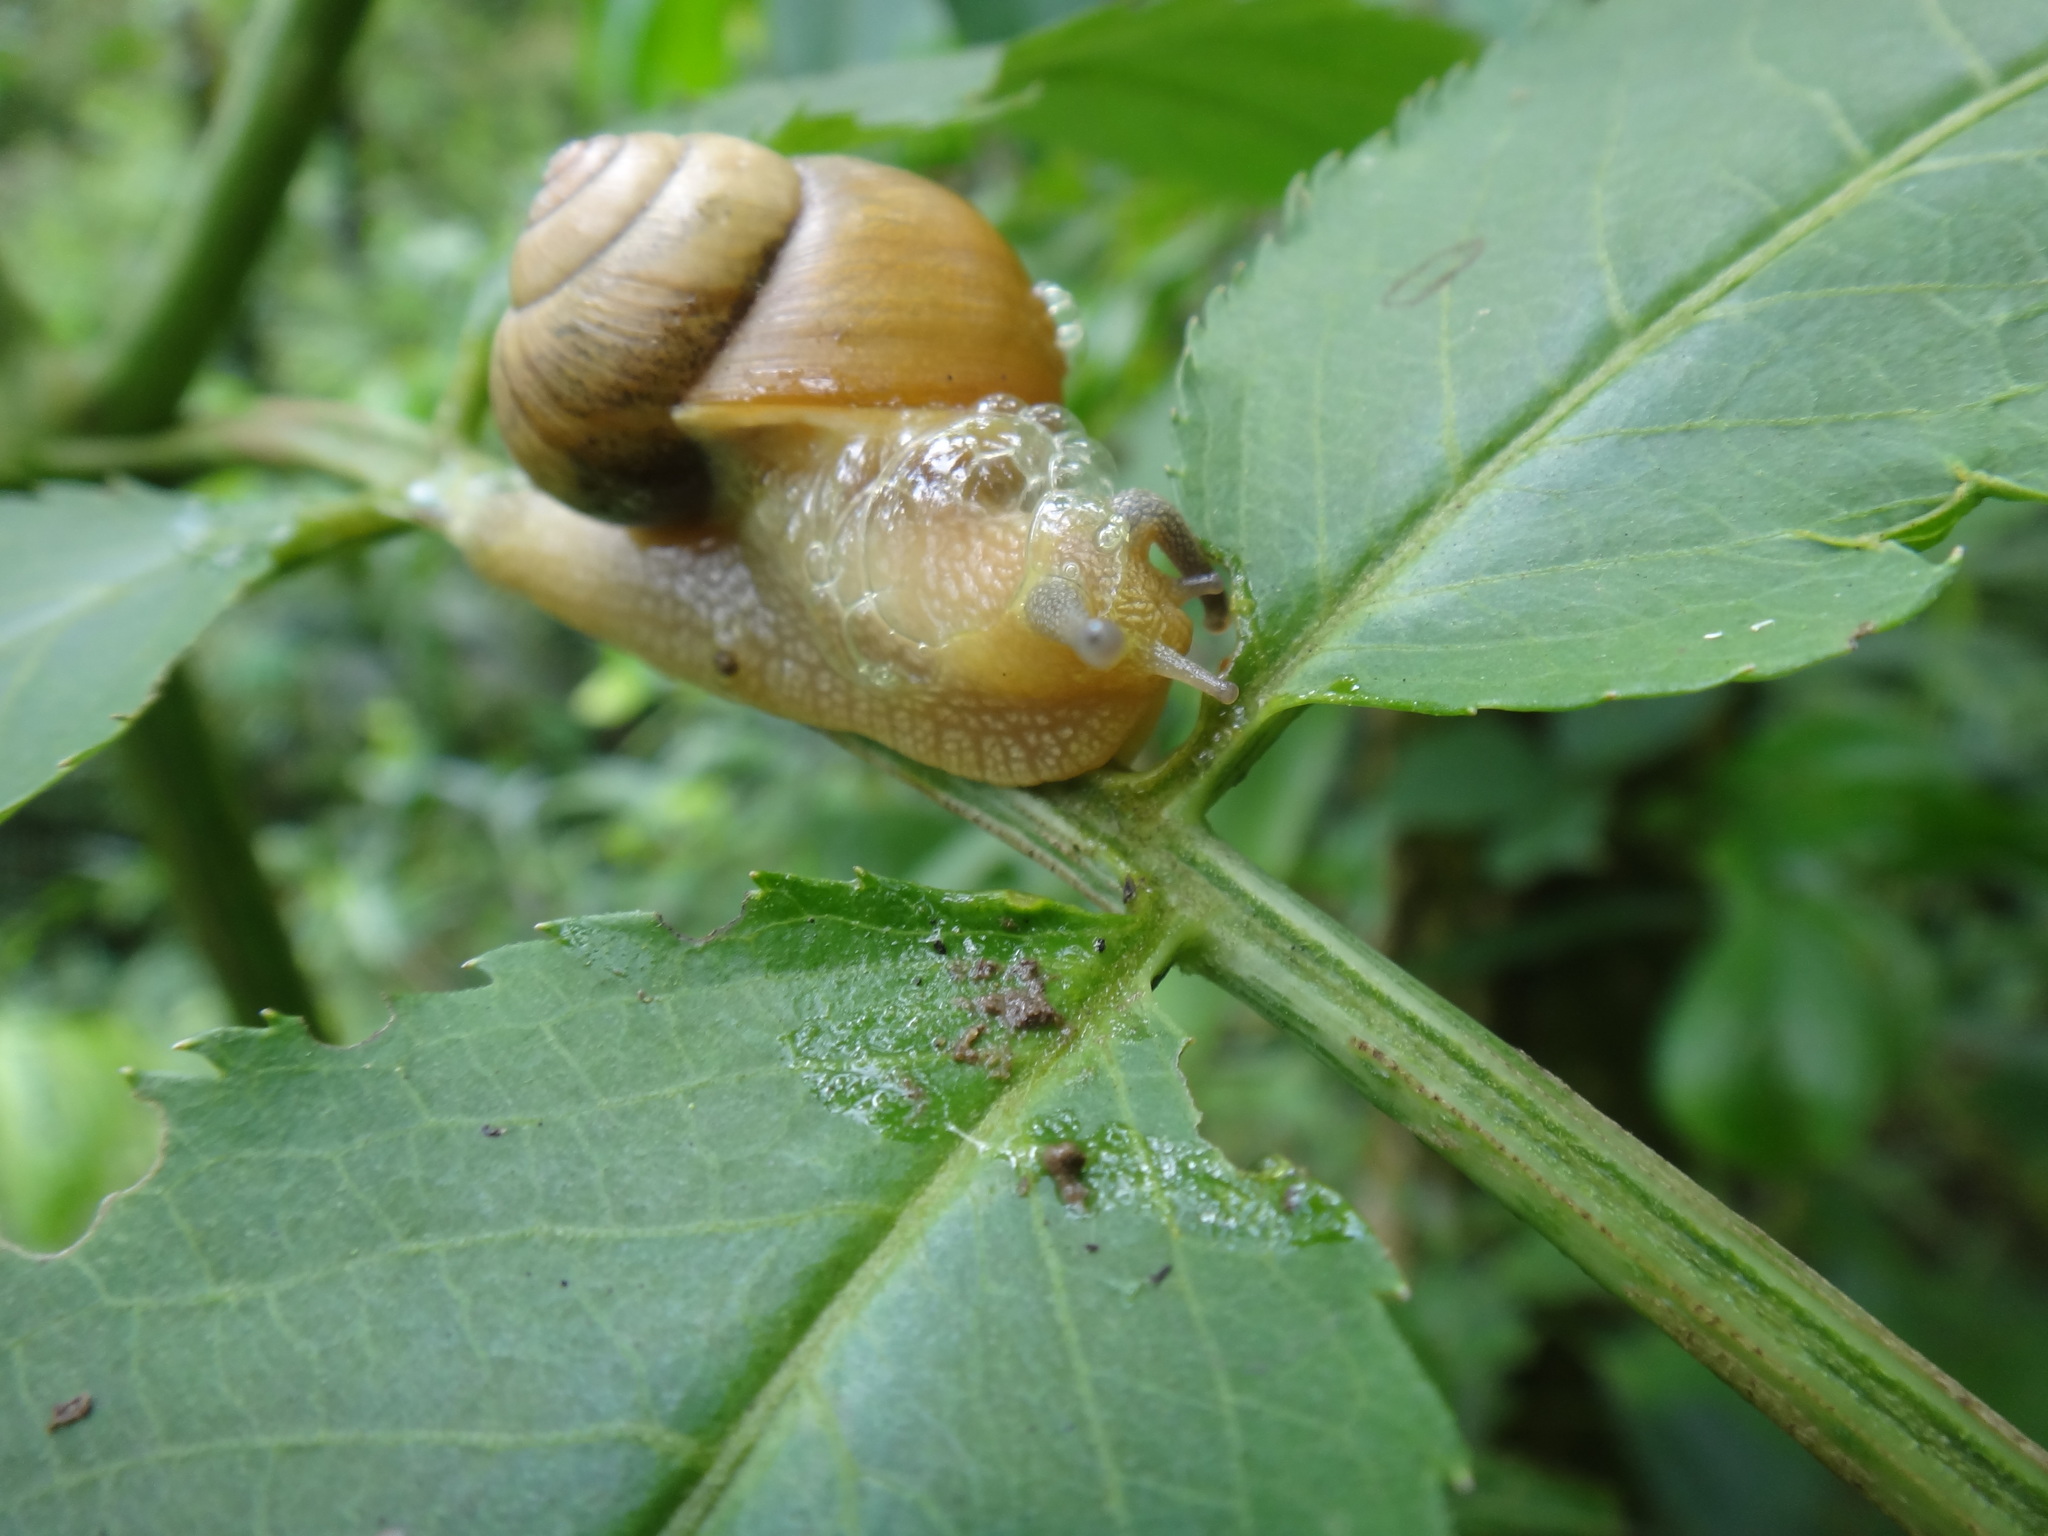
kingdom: Animalia
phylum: Mollusca
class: Gastropoda
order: Stylommatophora
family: Camaenidae
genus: Acusta
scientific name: Acusta despecta
